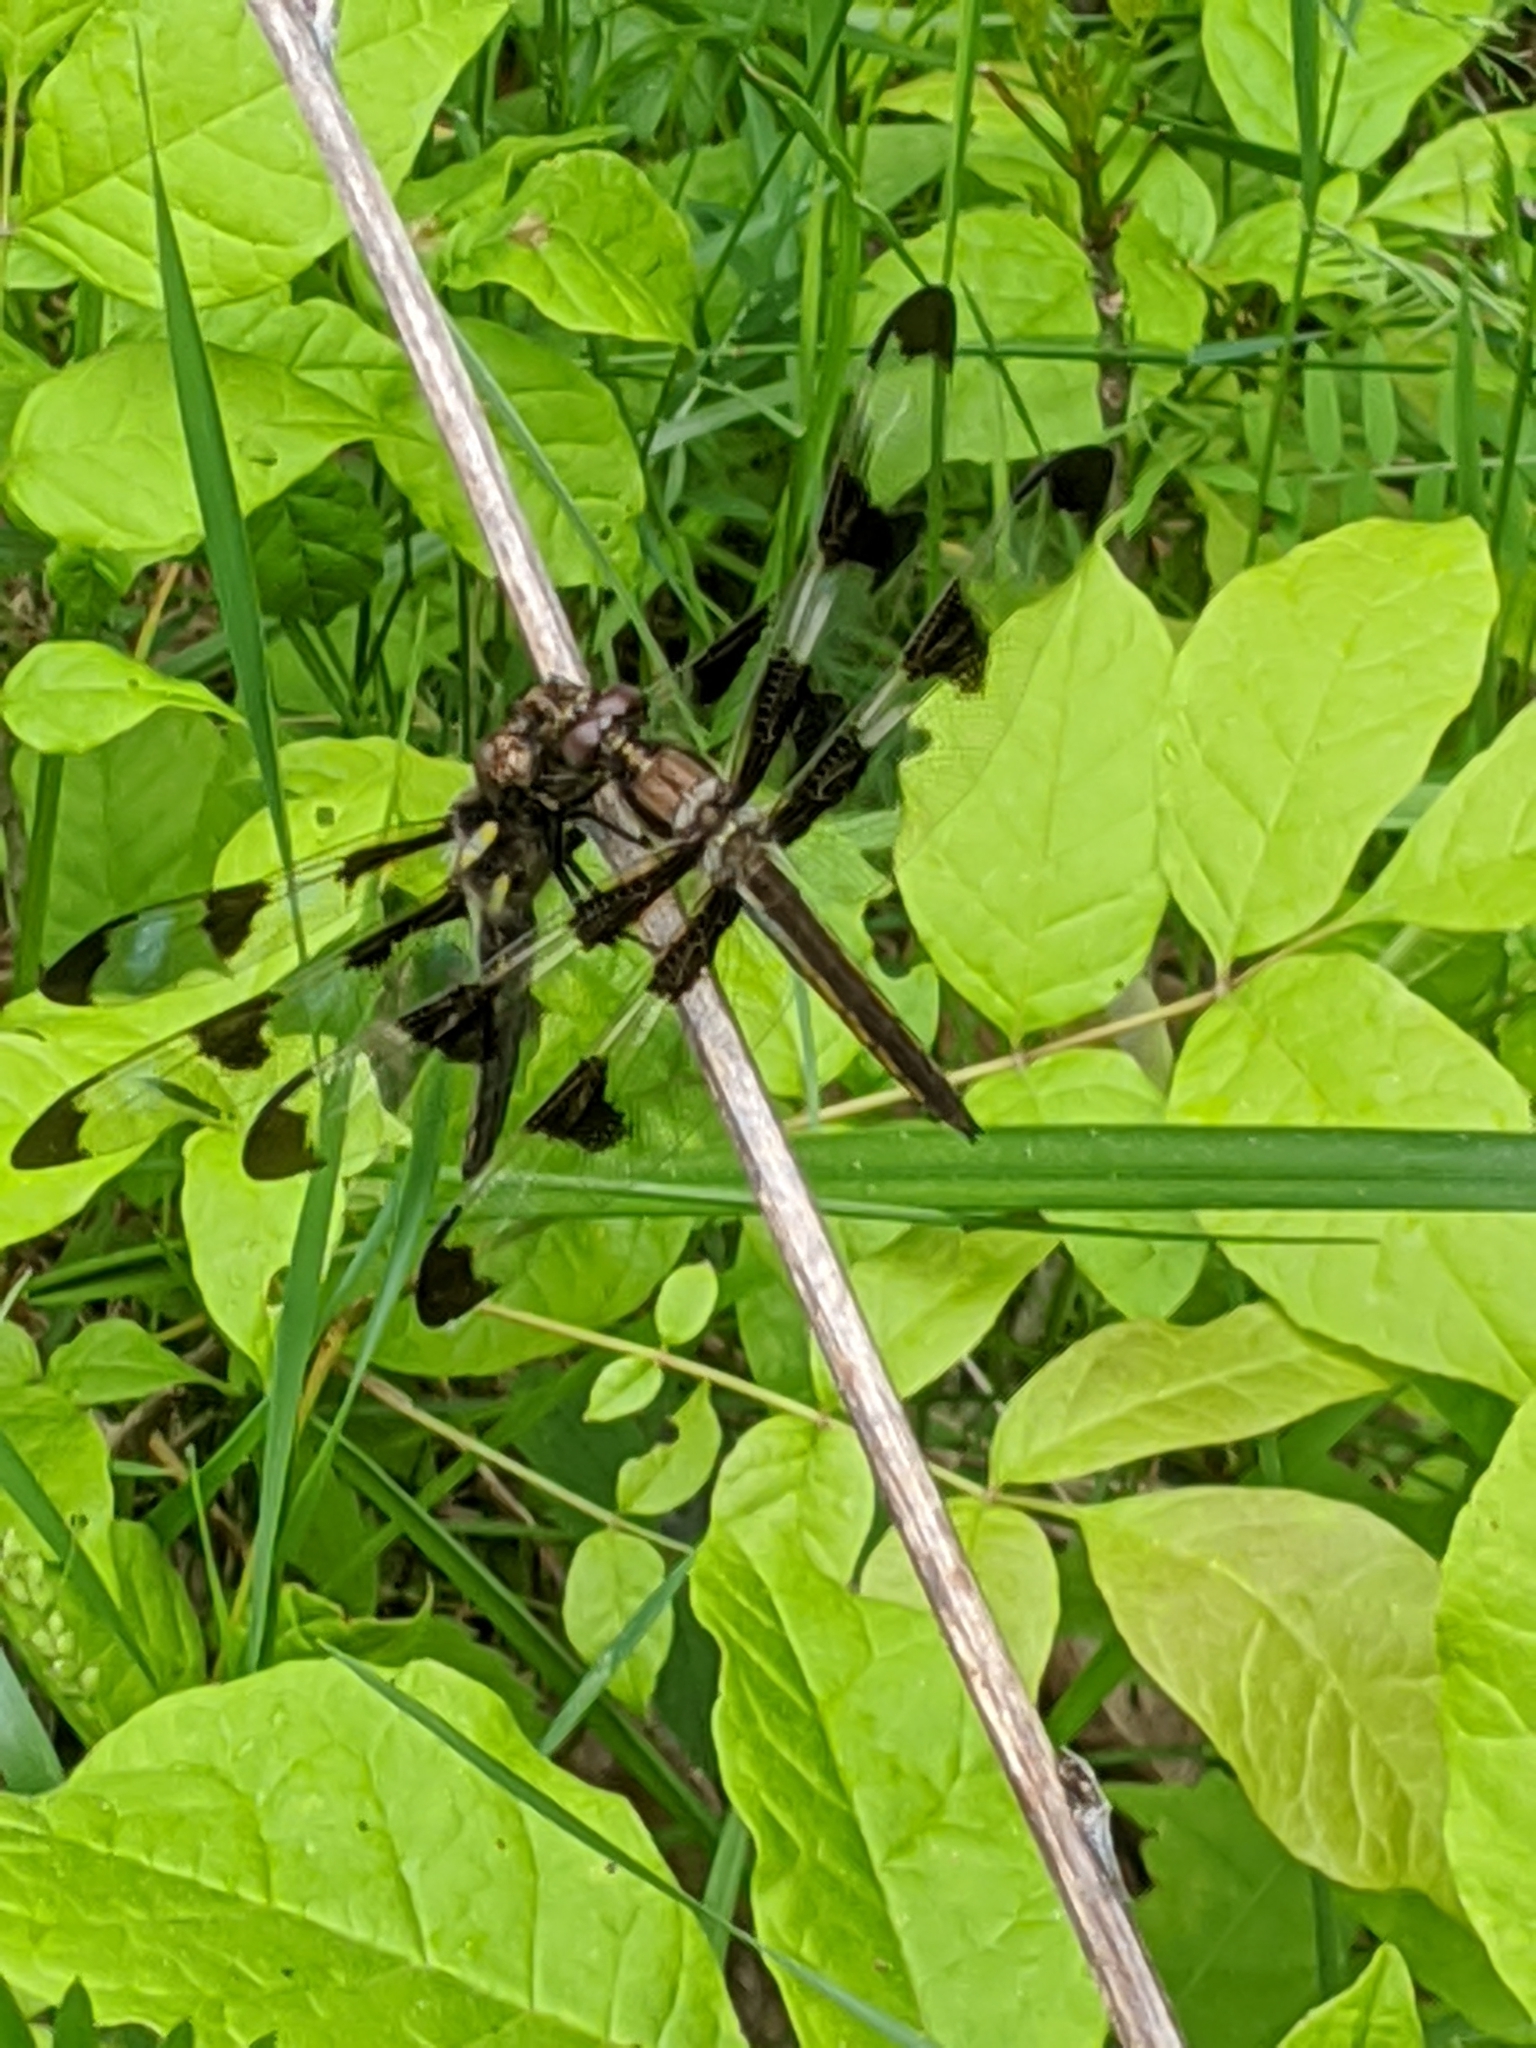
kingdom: Animalia
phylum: Arthropoda
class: Insecta
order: Odonata
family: Libellulidae
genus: Libellula
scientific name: Libellula pulchella
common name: Twelve-spotted skimmer
